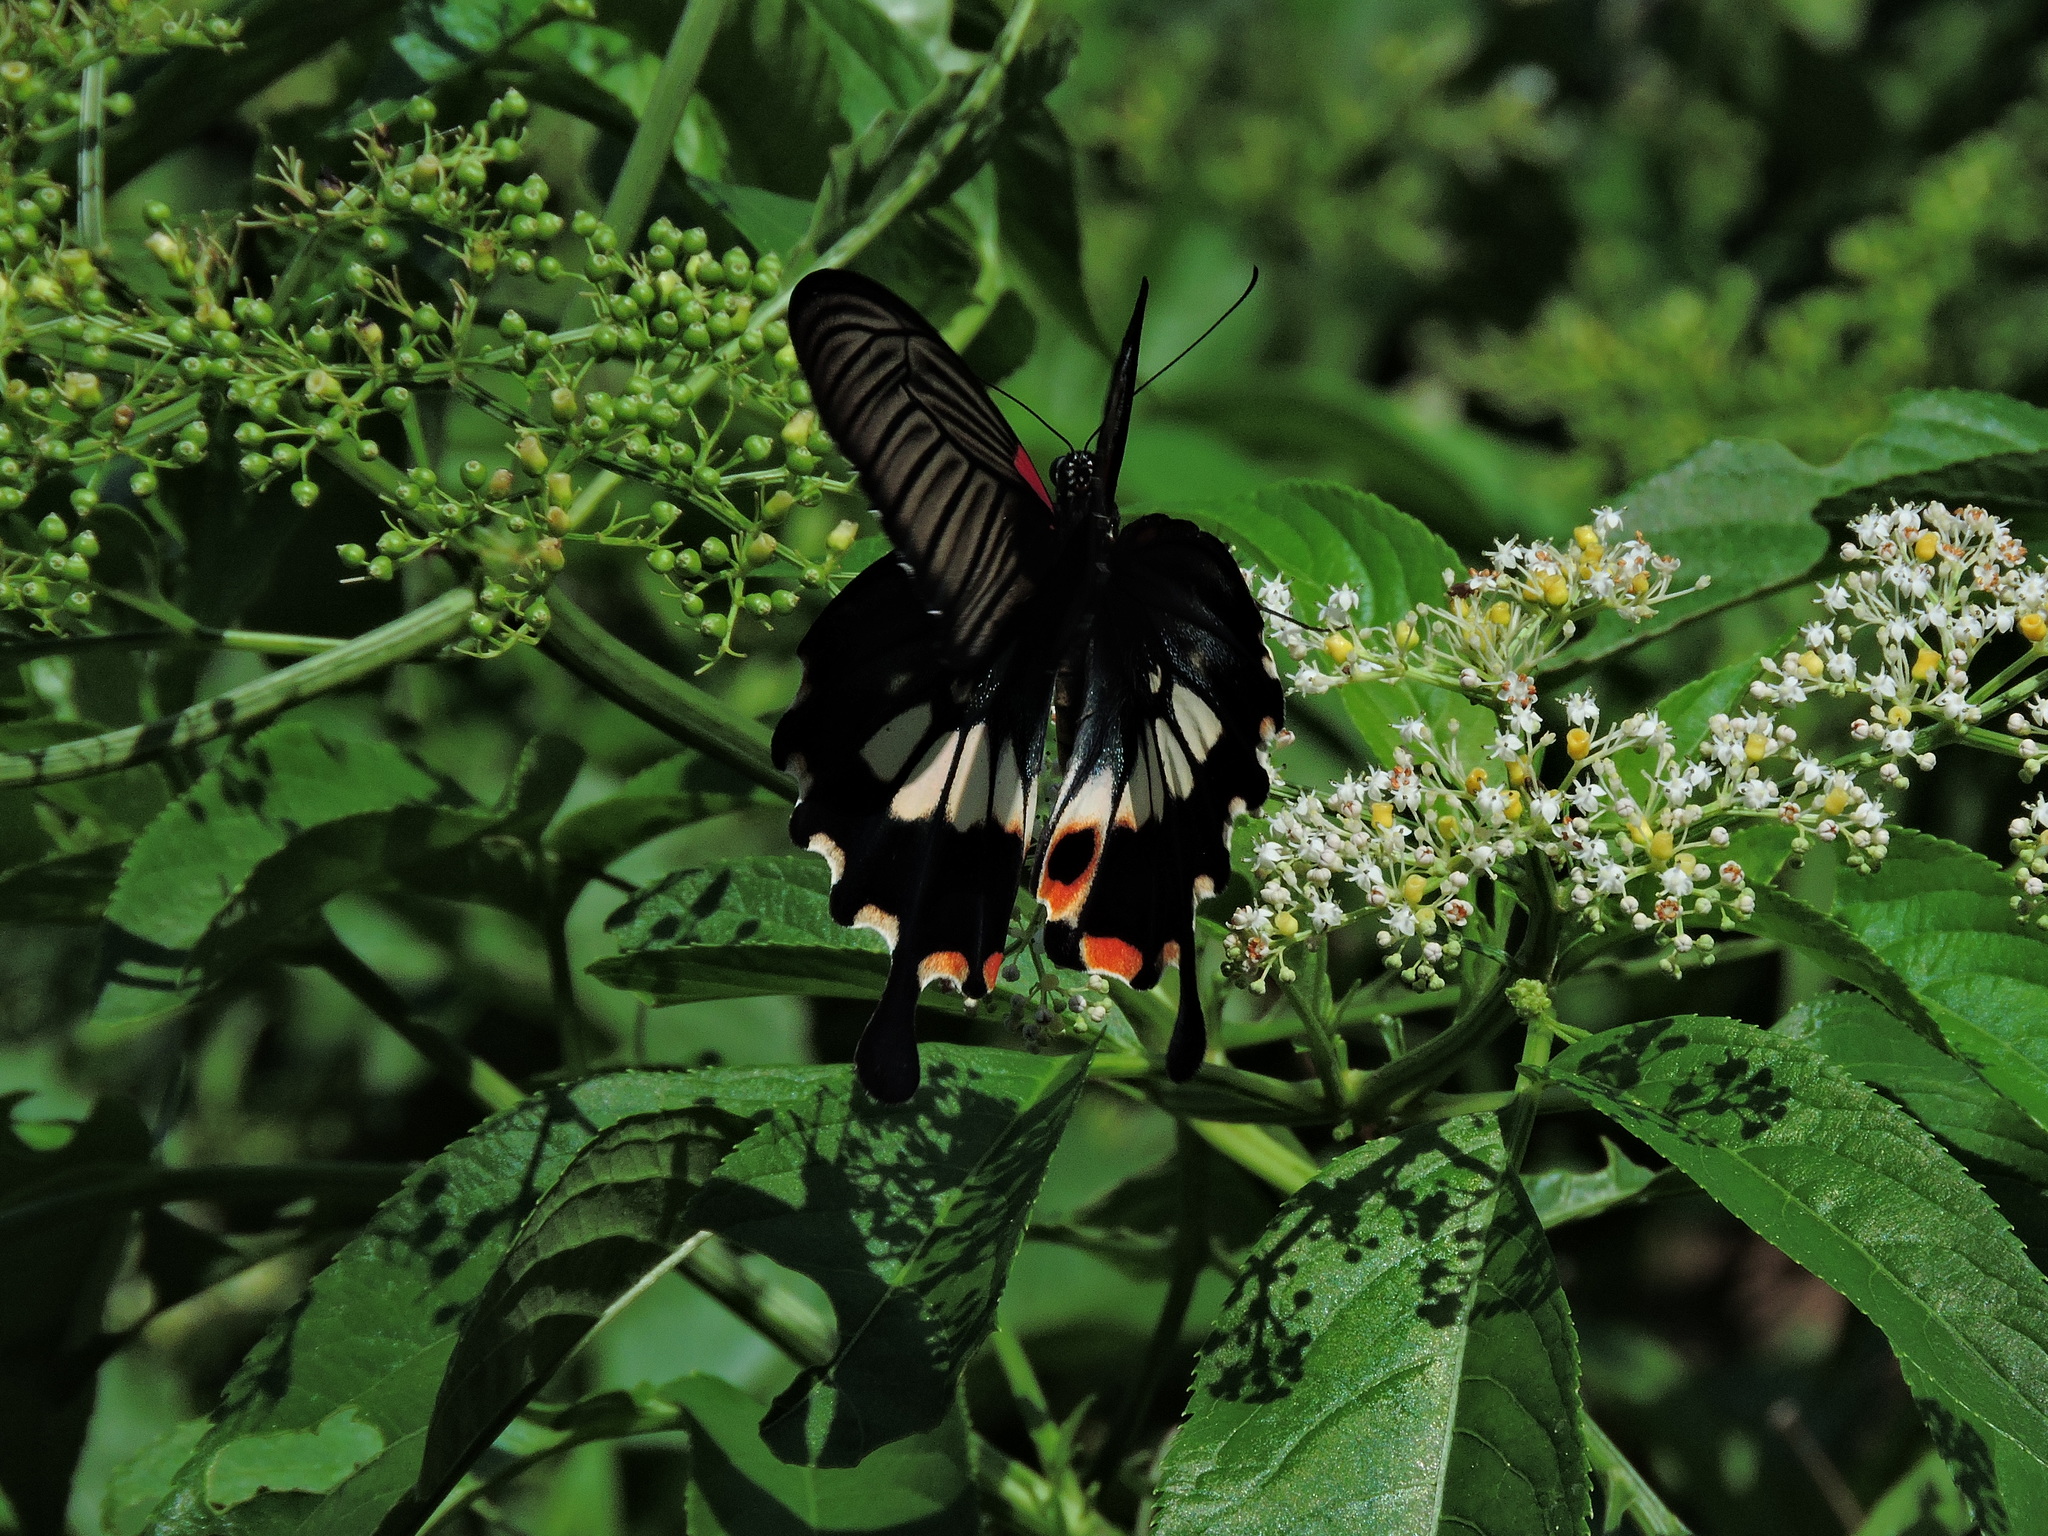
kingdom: Animalia
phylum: Arthropoda
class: Insecta
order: Lepidoptera
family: Papilionidae
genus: Papilio
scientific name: Papilio memnon
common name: Great mormon
